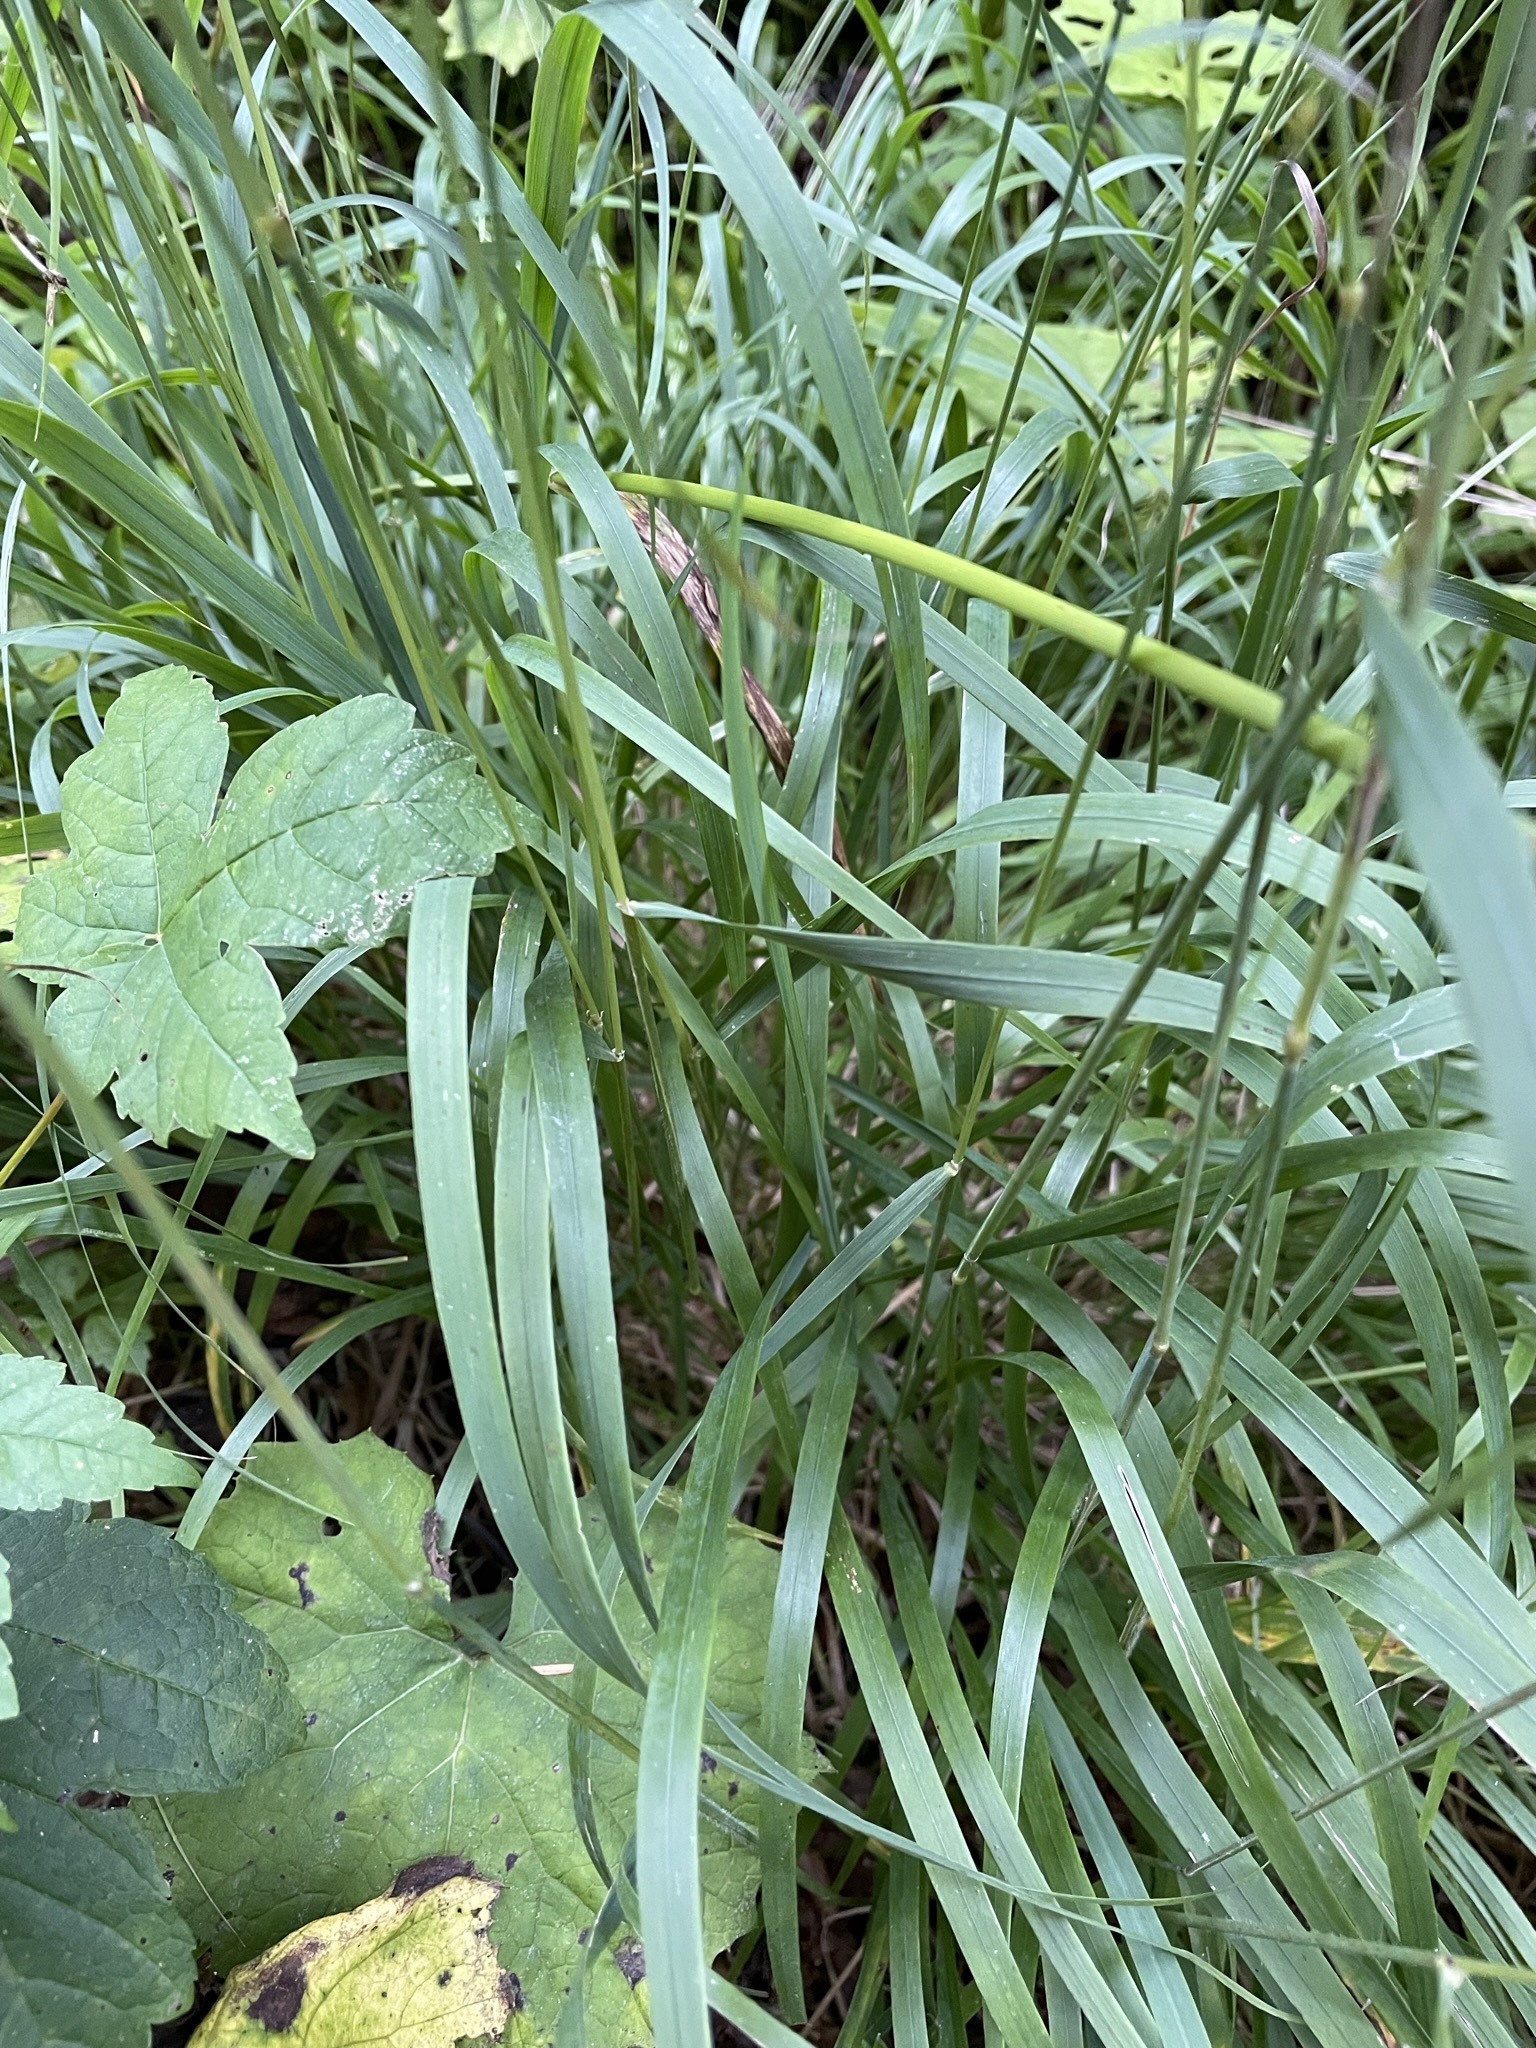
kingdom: Plantae
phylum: Tracheophyta
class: Liliopsida
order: Poales
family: Poaceae
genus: Calamagrostis
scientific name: Calamagrostis varia
